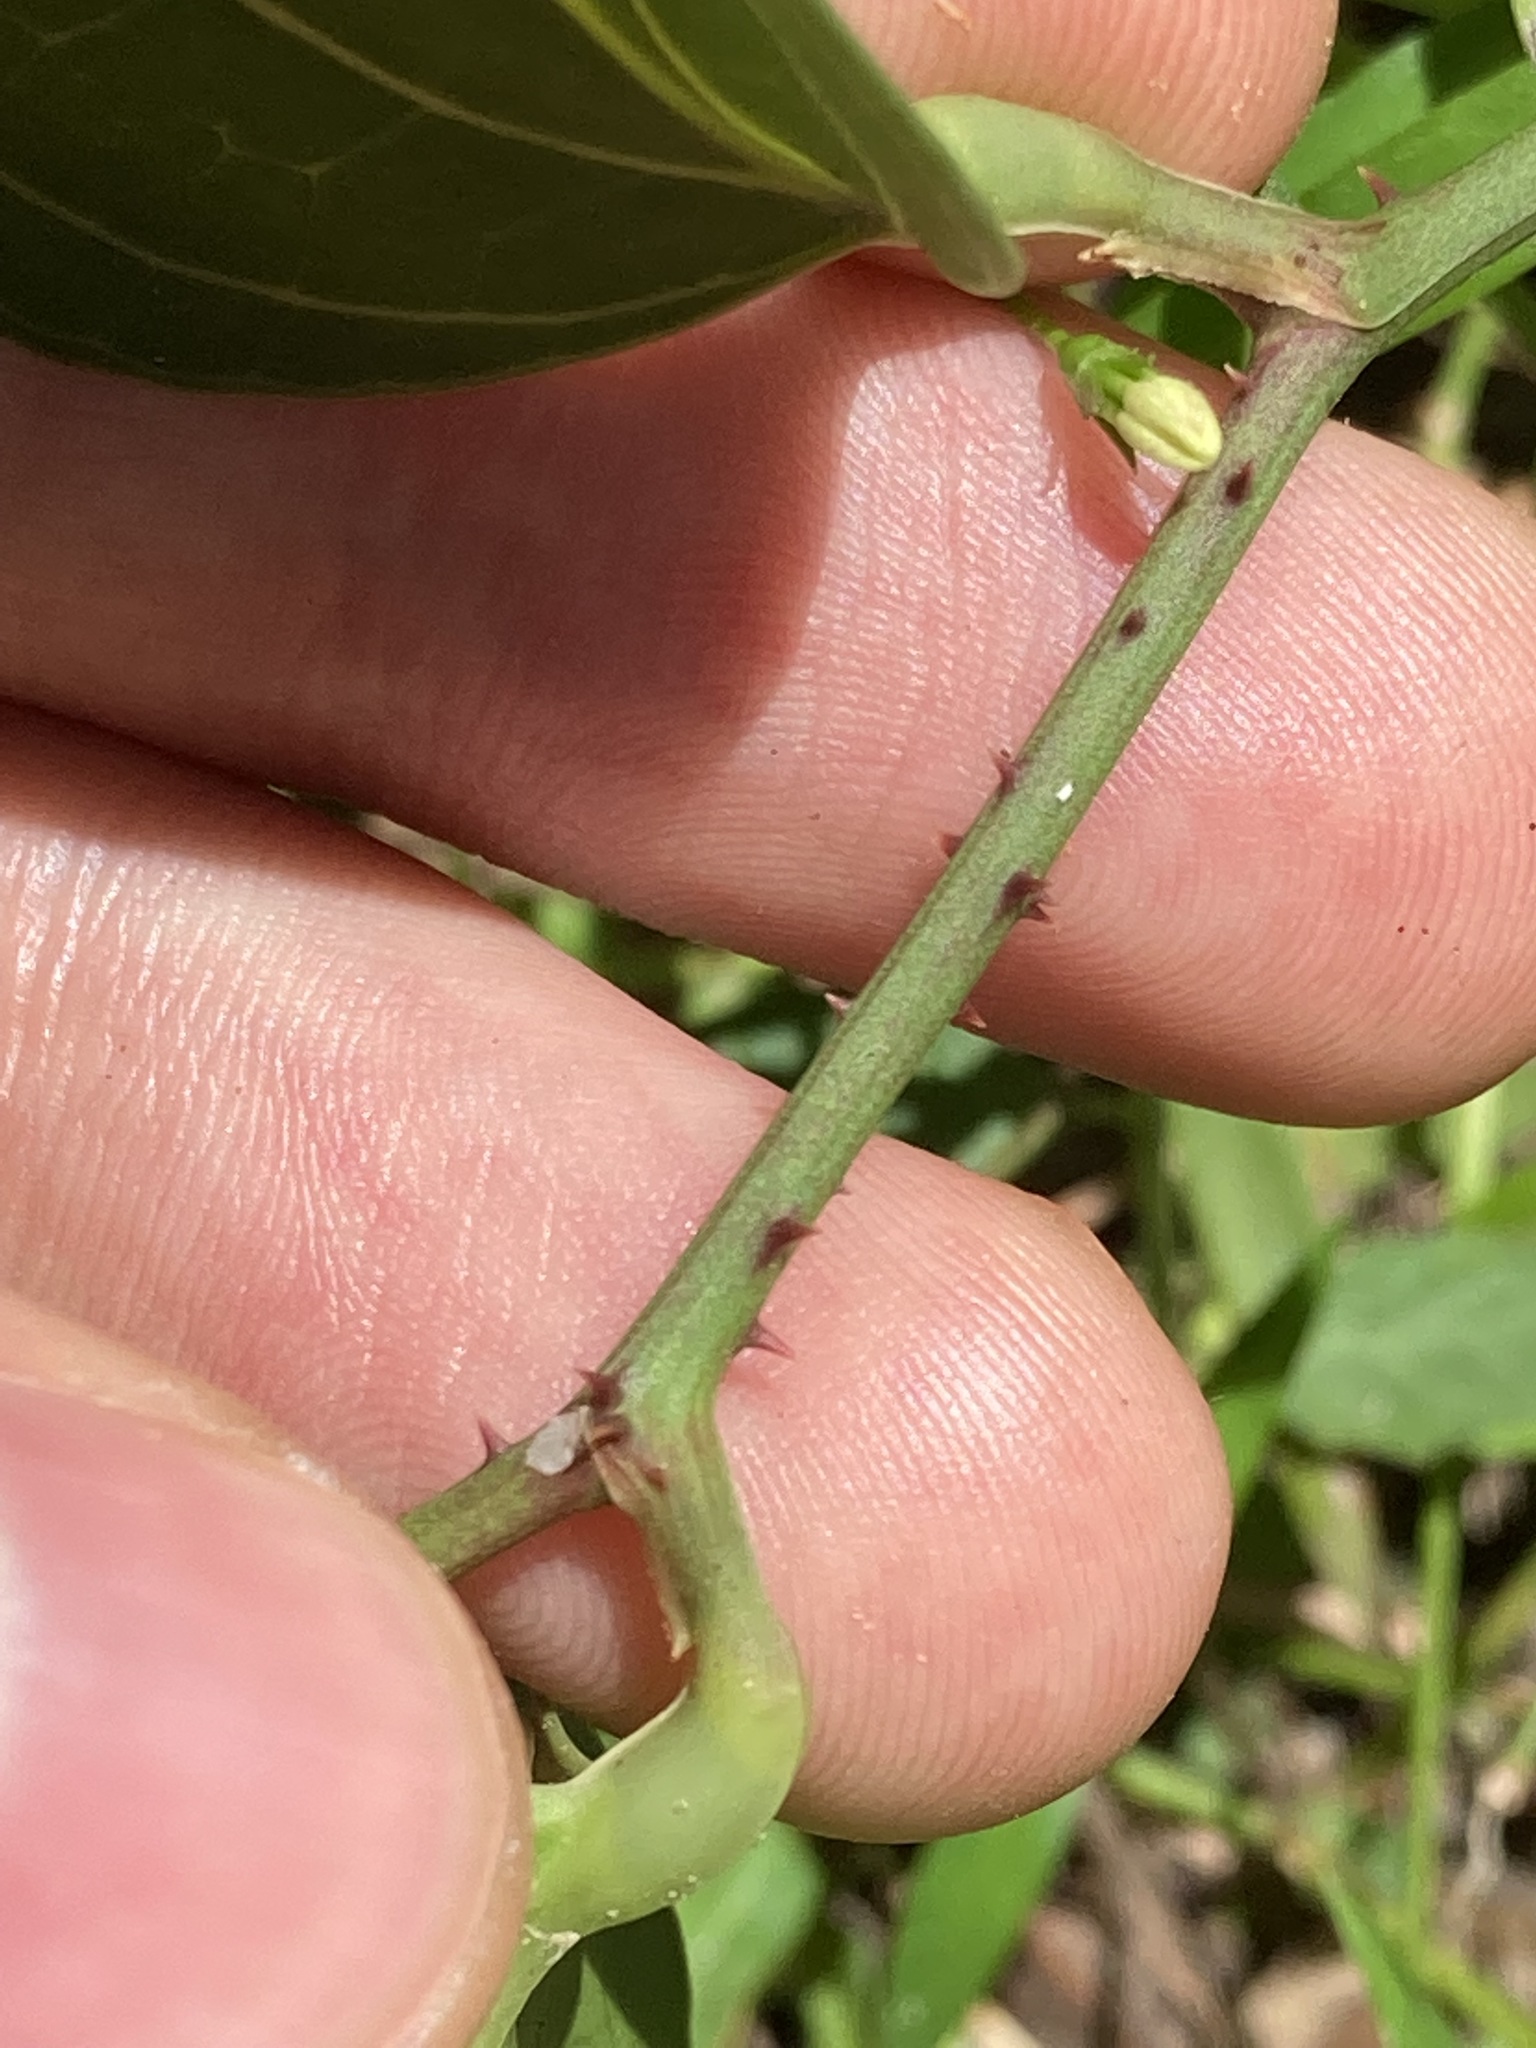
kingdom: Plantae
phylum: Tracheophyta
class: Liliopsida
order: Liliales
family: Smilacaceae
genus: Smilax
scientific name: Smilax australis
